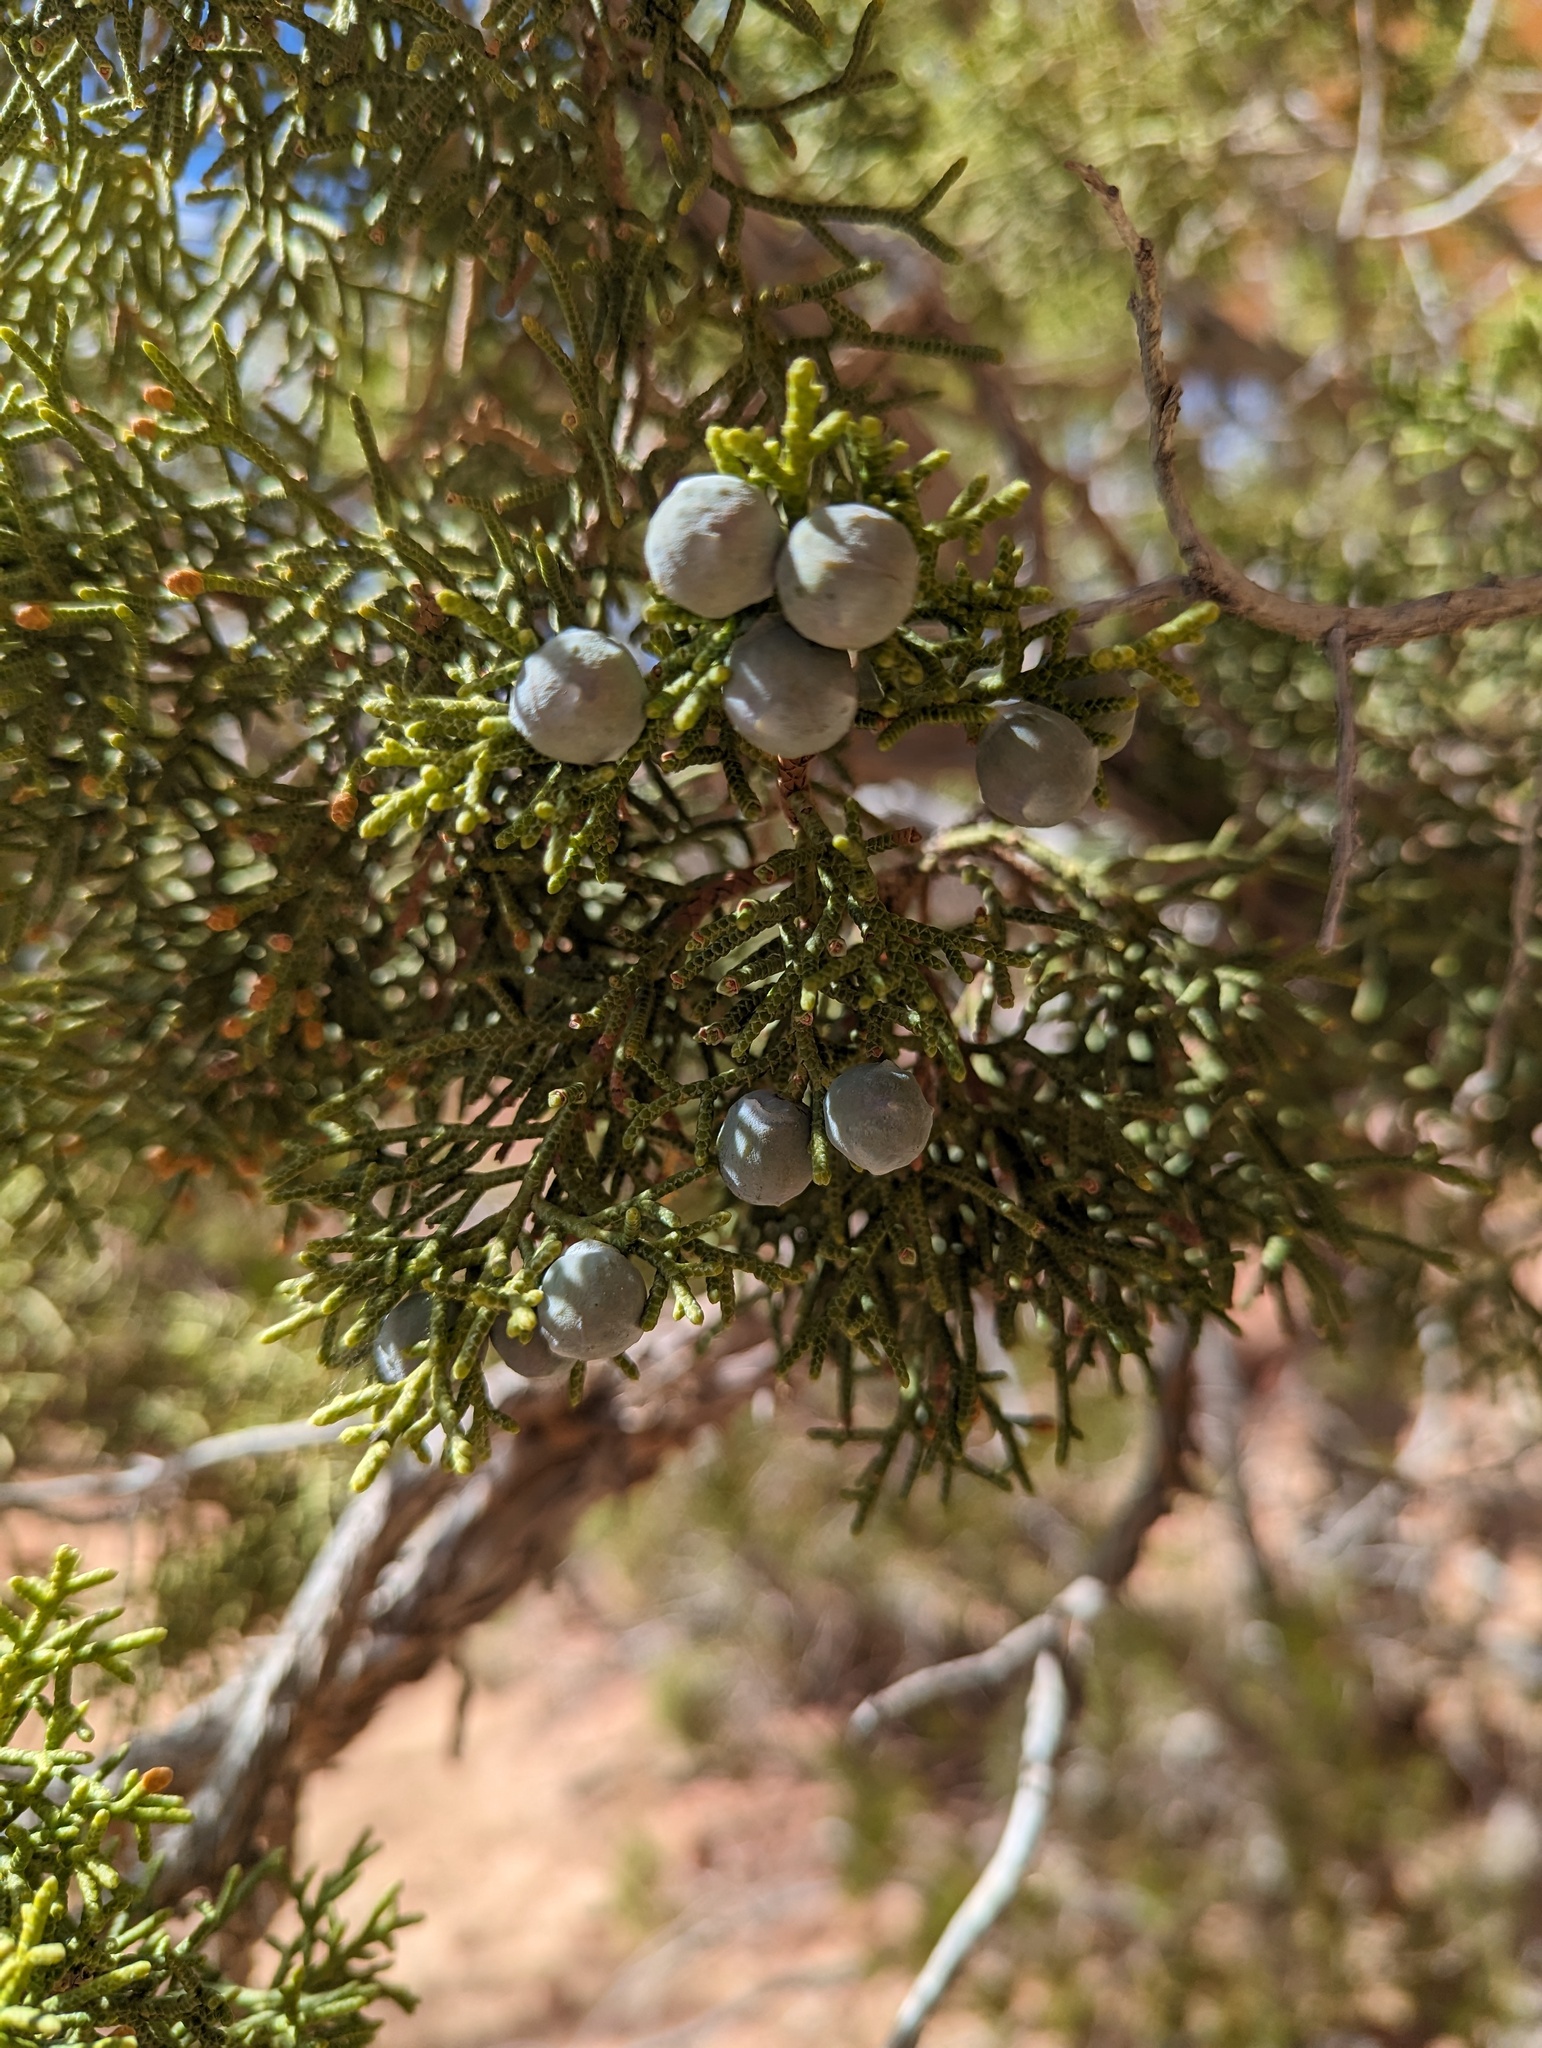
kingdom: Plantae
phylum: Tracheophyta
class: Pinopsida
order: Pinales
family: Cupressaceae
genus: Juniperus
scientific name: Juniperus osteosperma
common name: Utah juniper
